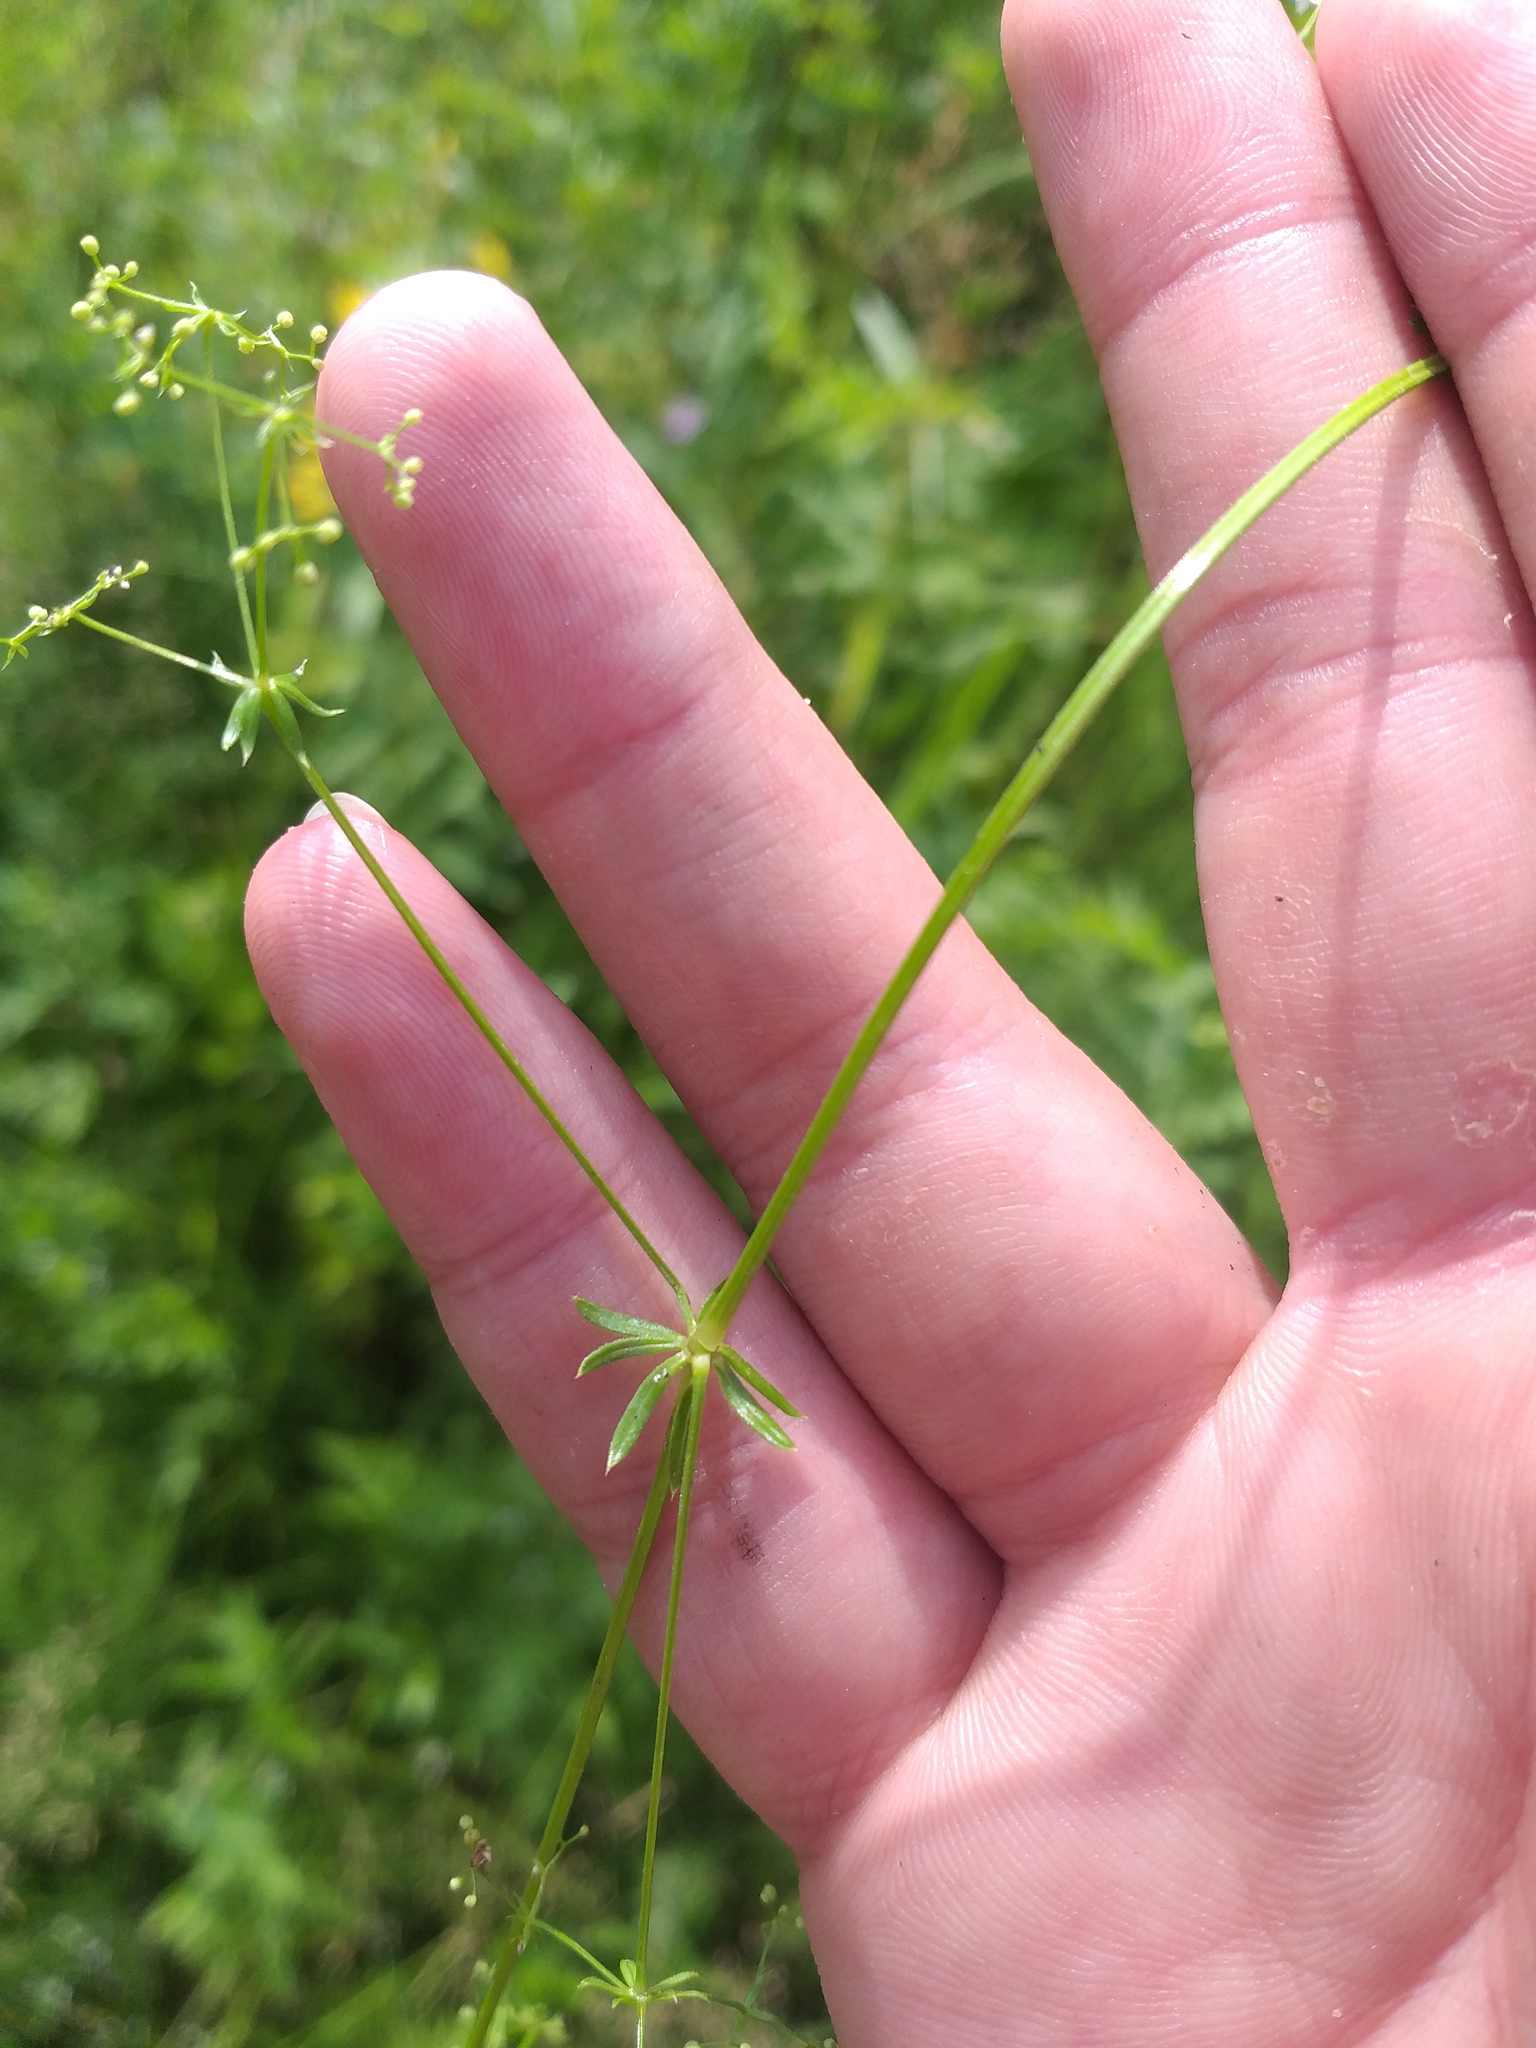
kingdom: Plantae
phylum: Tracheophyta
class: Magnoliopsida
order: Gentianales
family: Rubiaceae
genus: Galium
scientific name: Galium uliginosum
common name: Fen bedstraw
